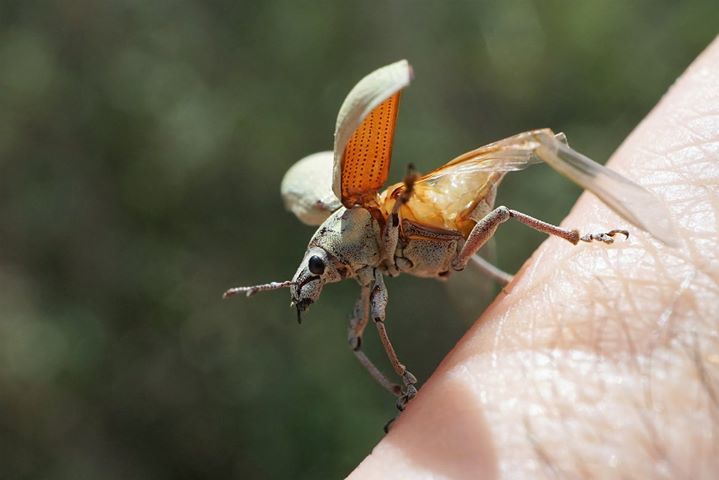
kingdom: Animalia
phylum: Arthropoda
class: Insecta
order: Coleoptera
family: Curculionidae
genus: Pachnaeus
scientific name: Pachnaeus litus
